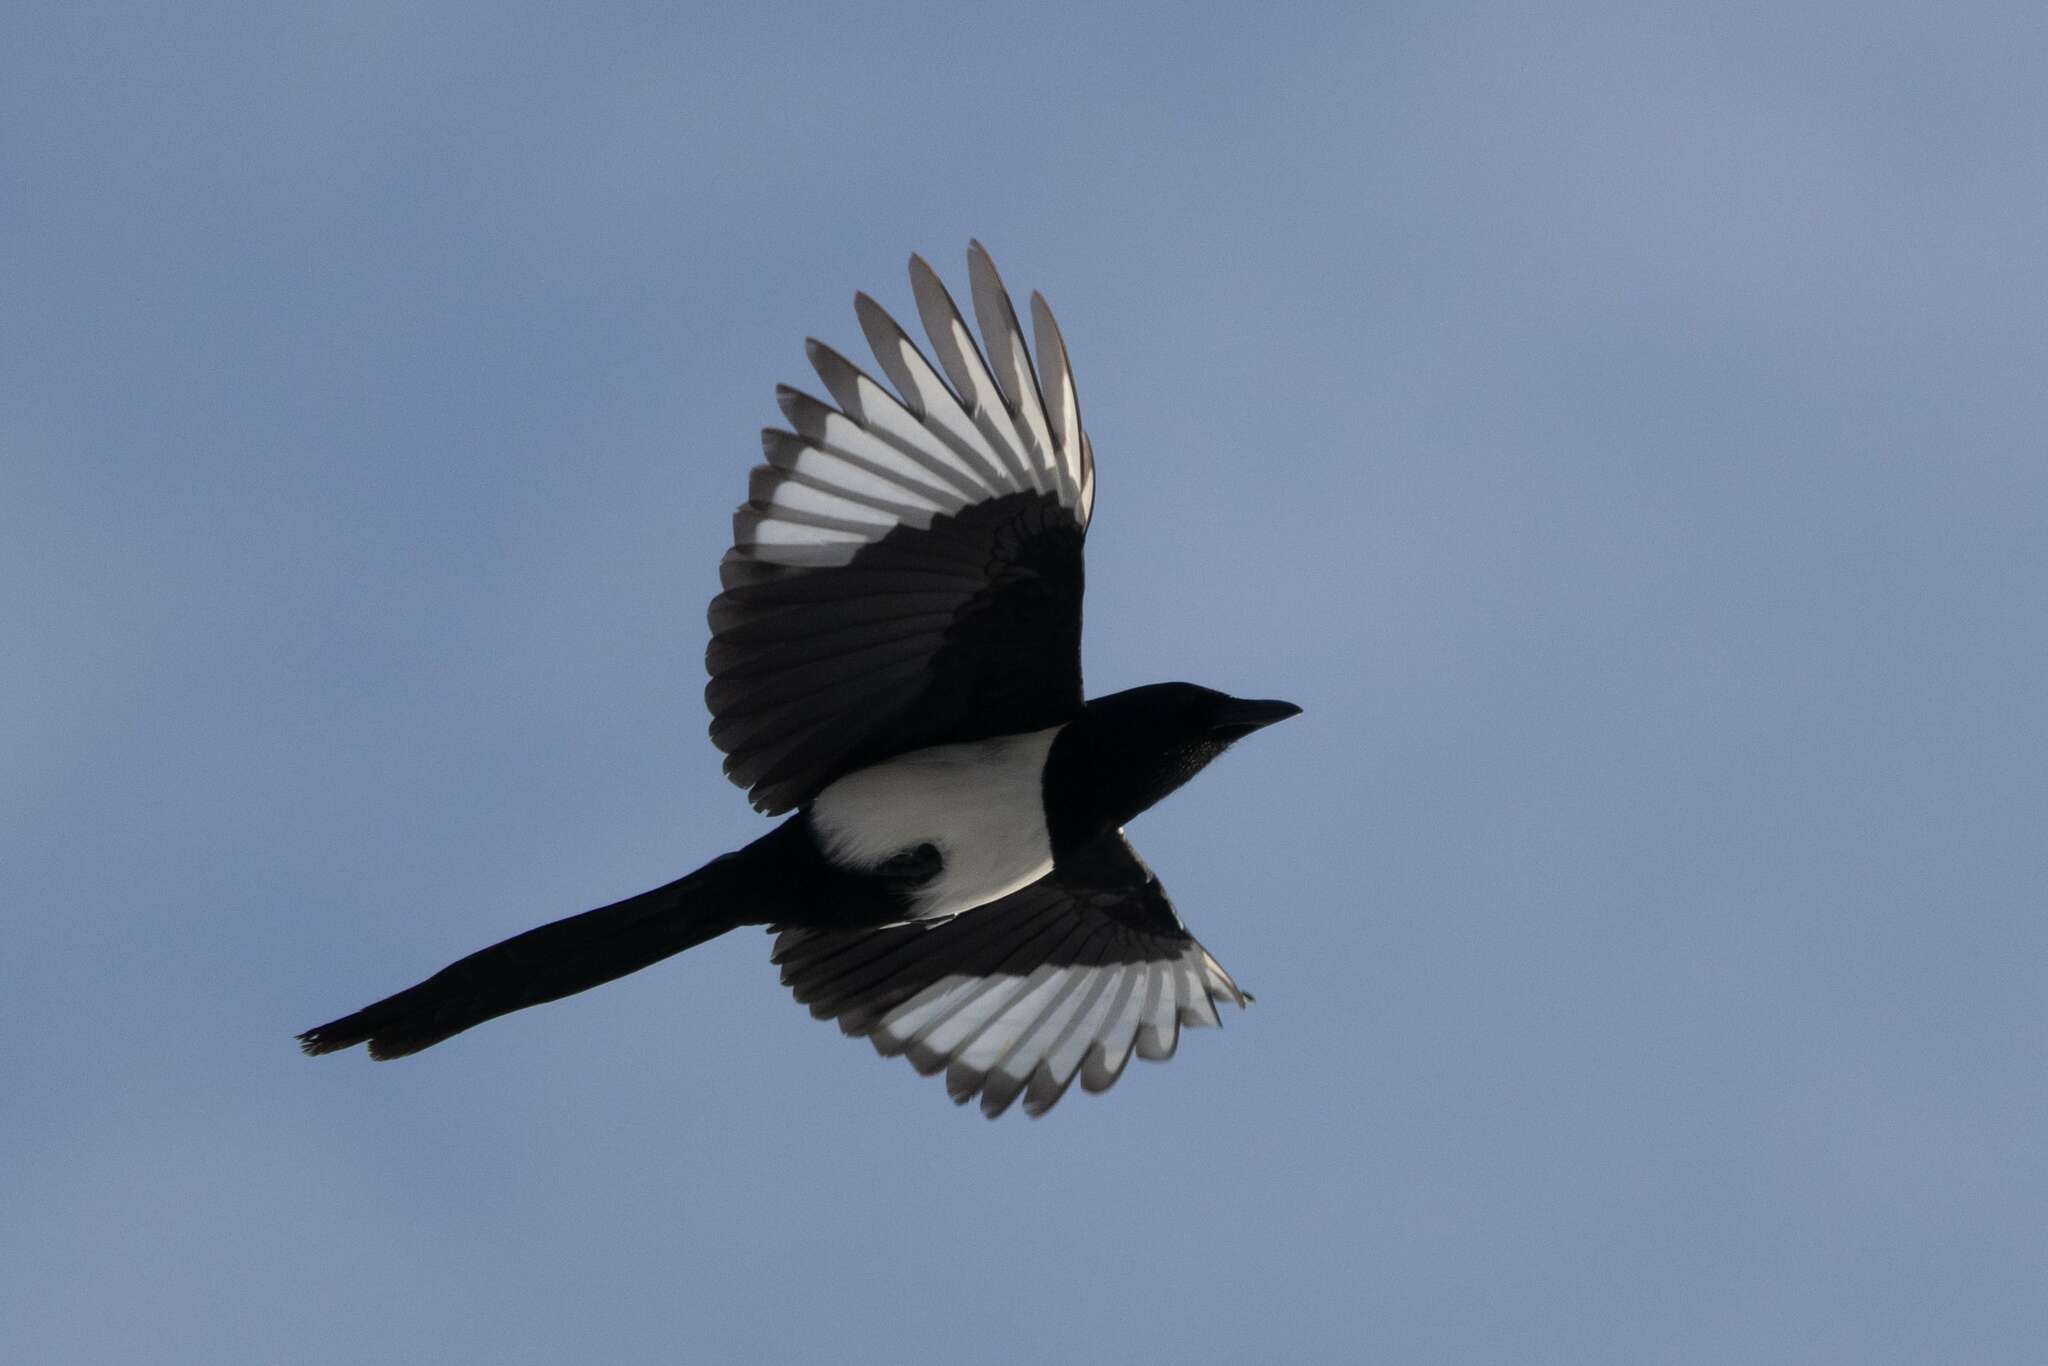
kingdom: Animalia
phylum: Chordata
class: Aves
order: Passeriformes
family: Corvidae
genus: Pica
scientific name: Pica pica
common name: Eurasian magpie
